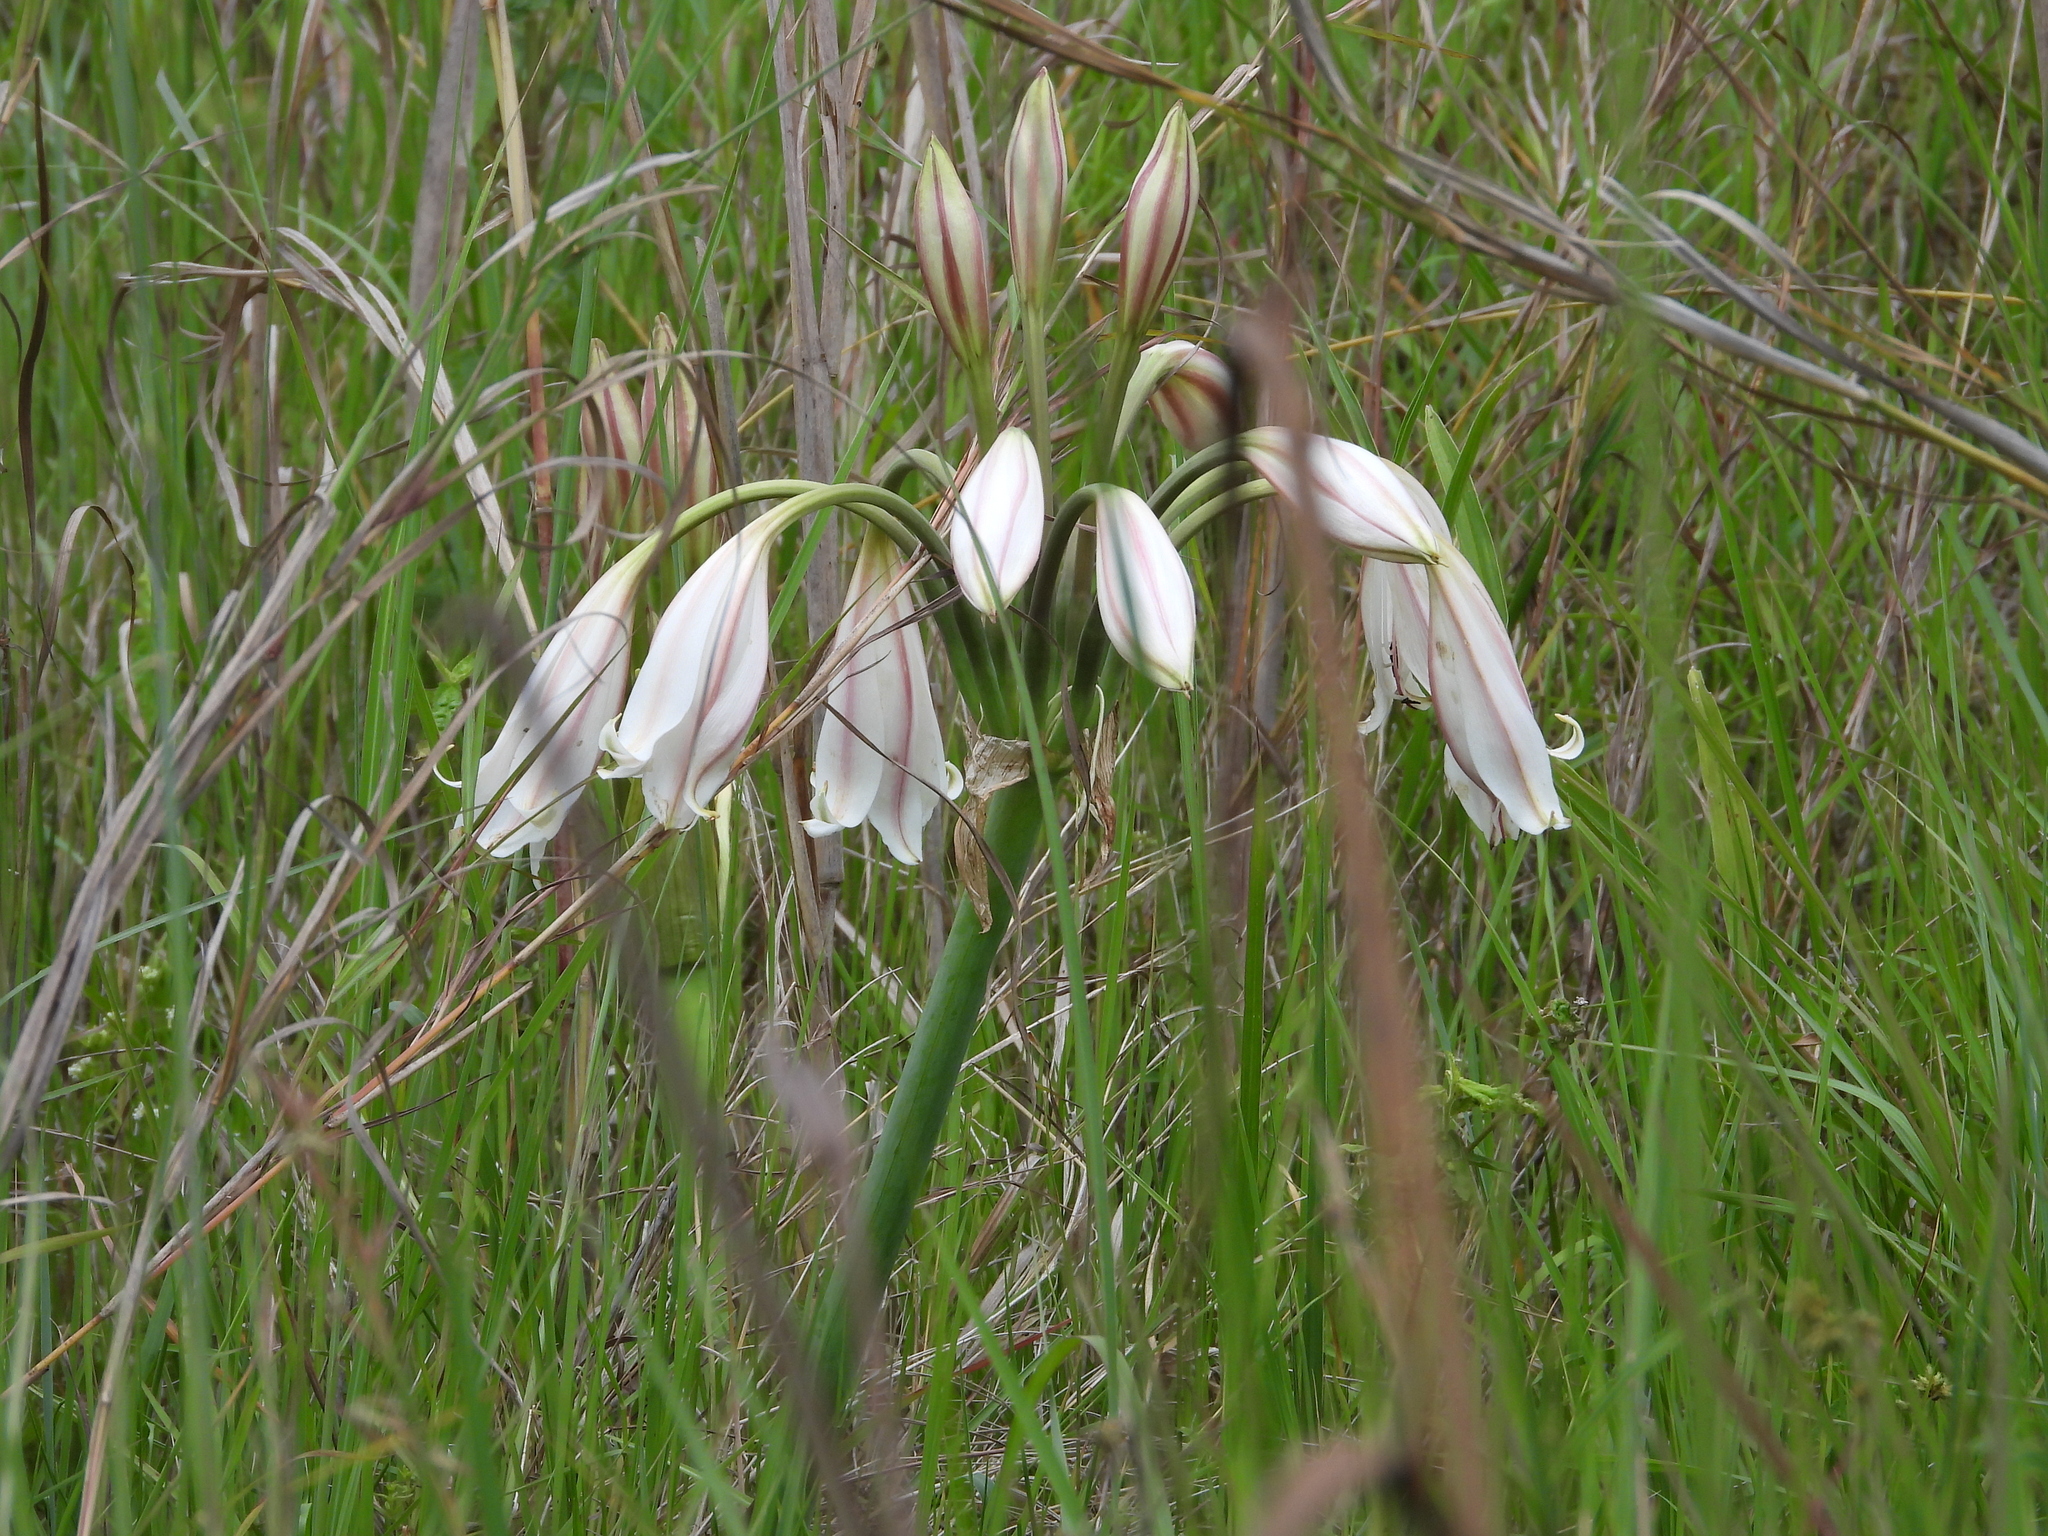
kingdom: Plantae
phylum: Tracheophyta
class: Liliopsida
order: Asparagales
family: Amaryllidaceae
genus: Crinum
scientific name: Crinum macowanii
